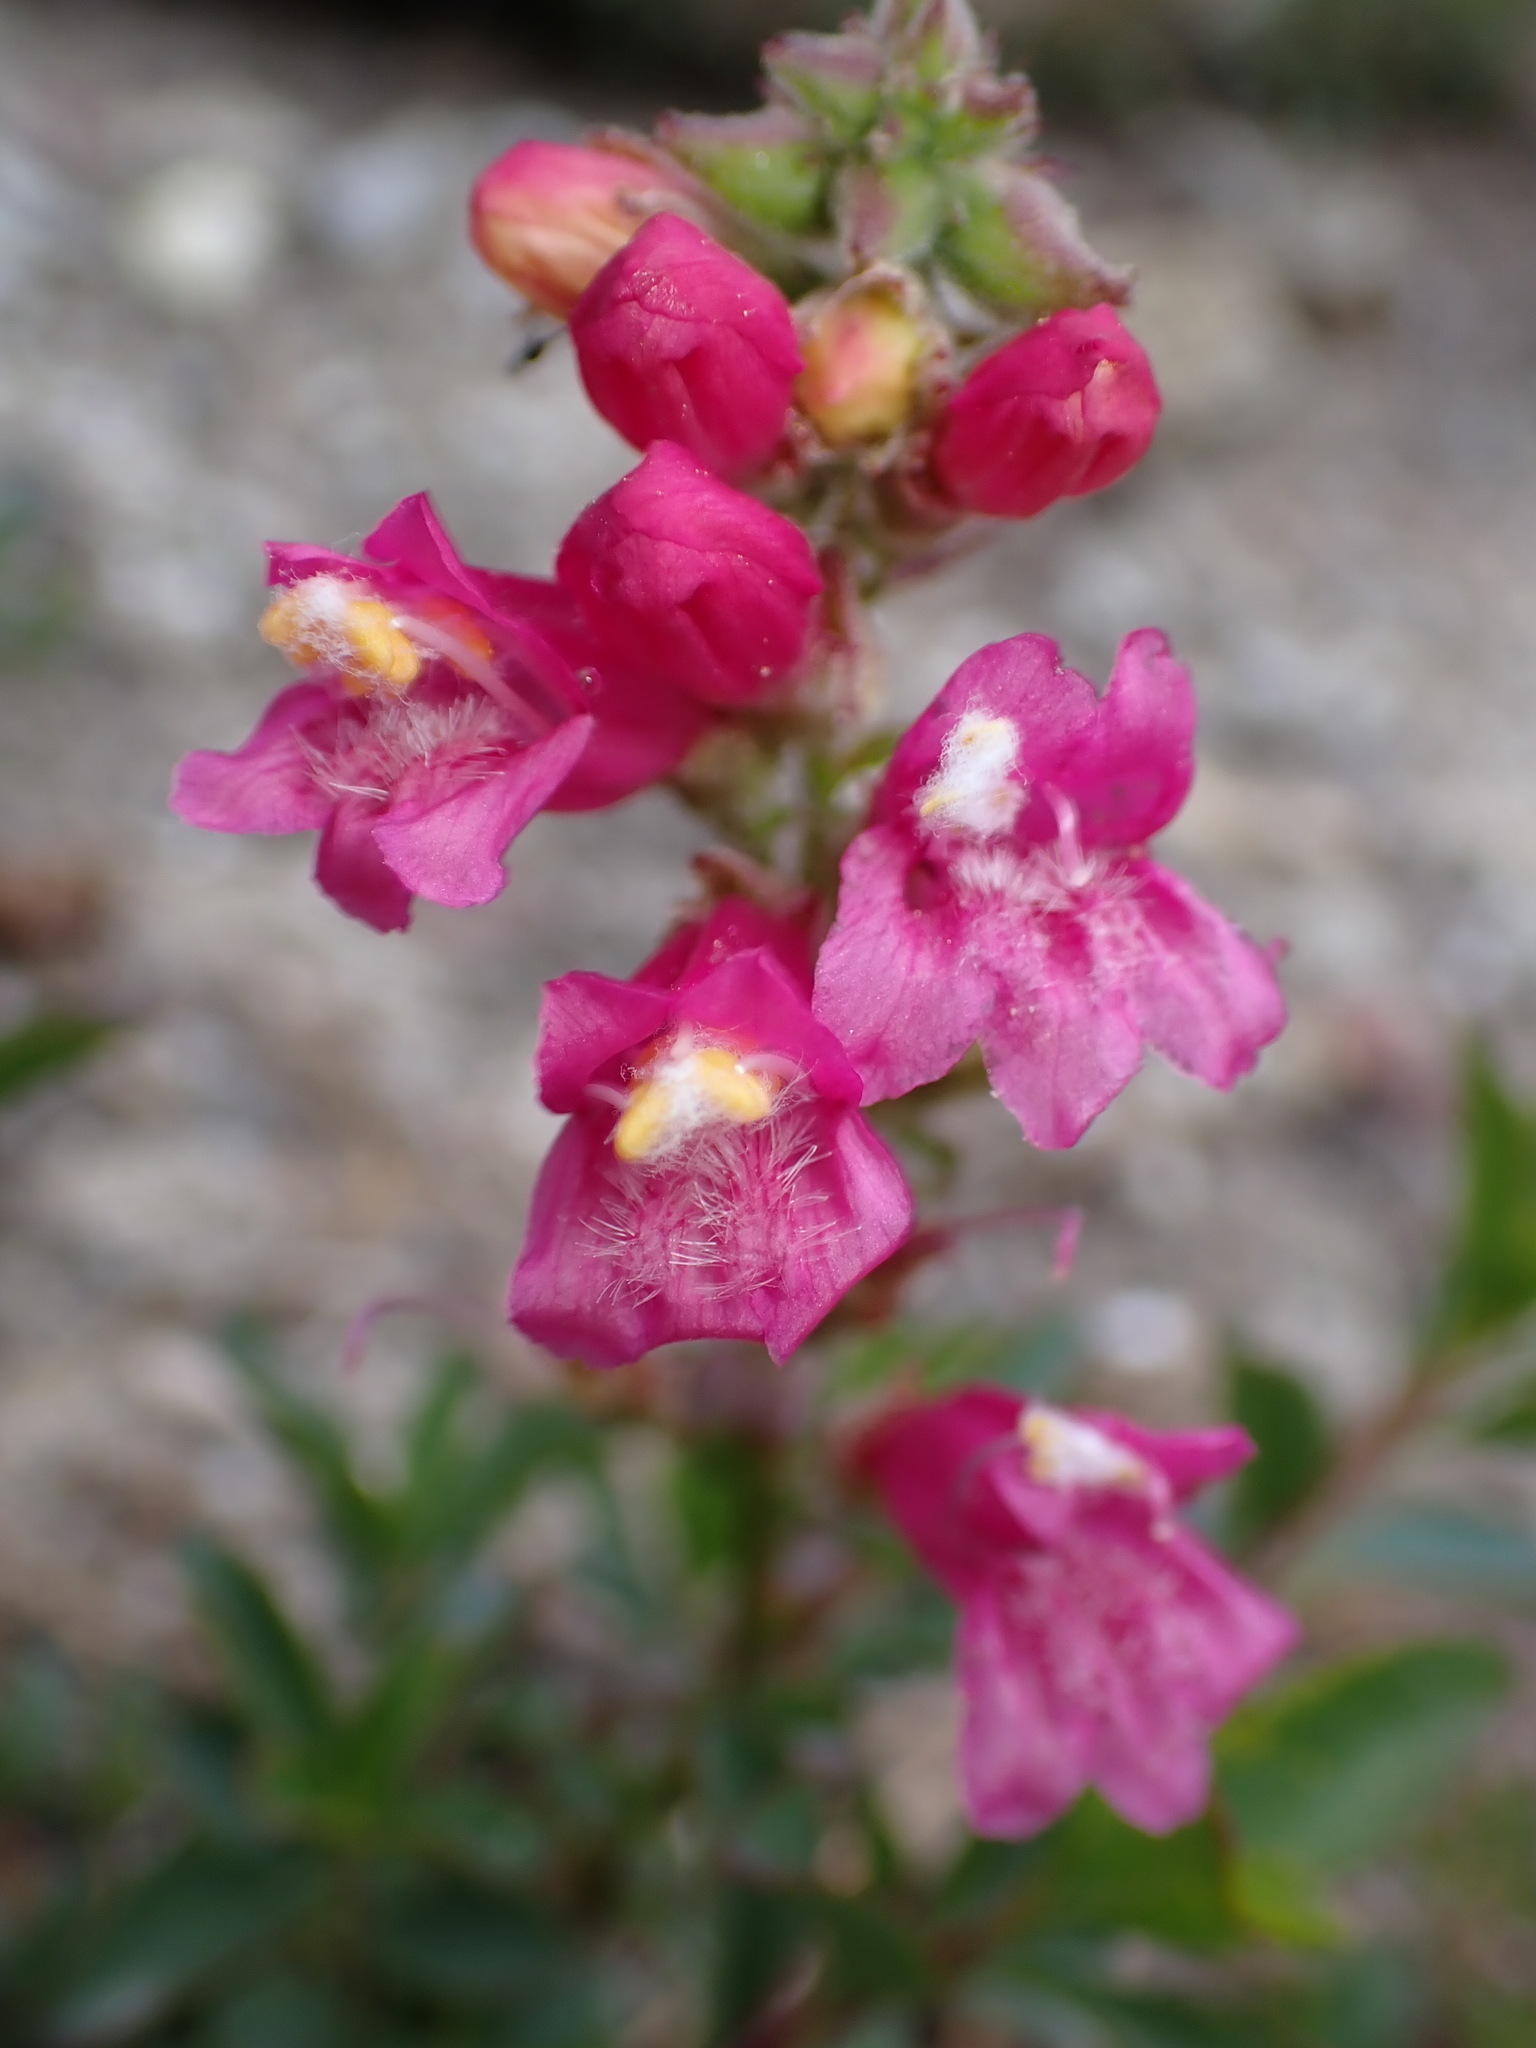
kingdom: Plantae
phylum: Tracheophyta
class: Magnoliopsida
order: Lamiales
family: Plantaginaceae
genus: Penstemon
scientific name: Penstemon newberryi
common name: Mountain-pride
